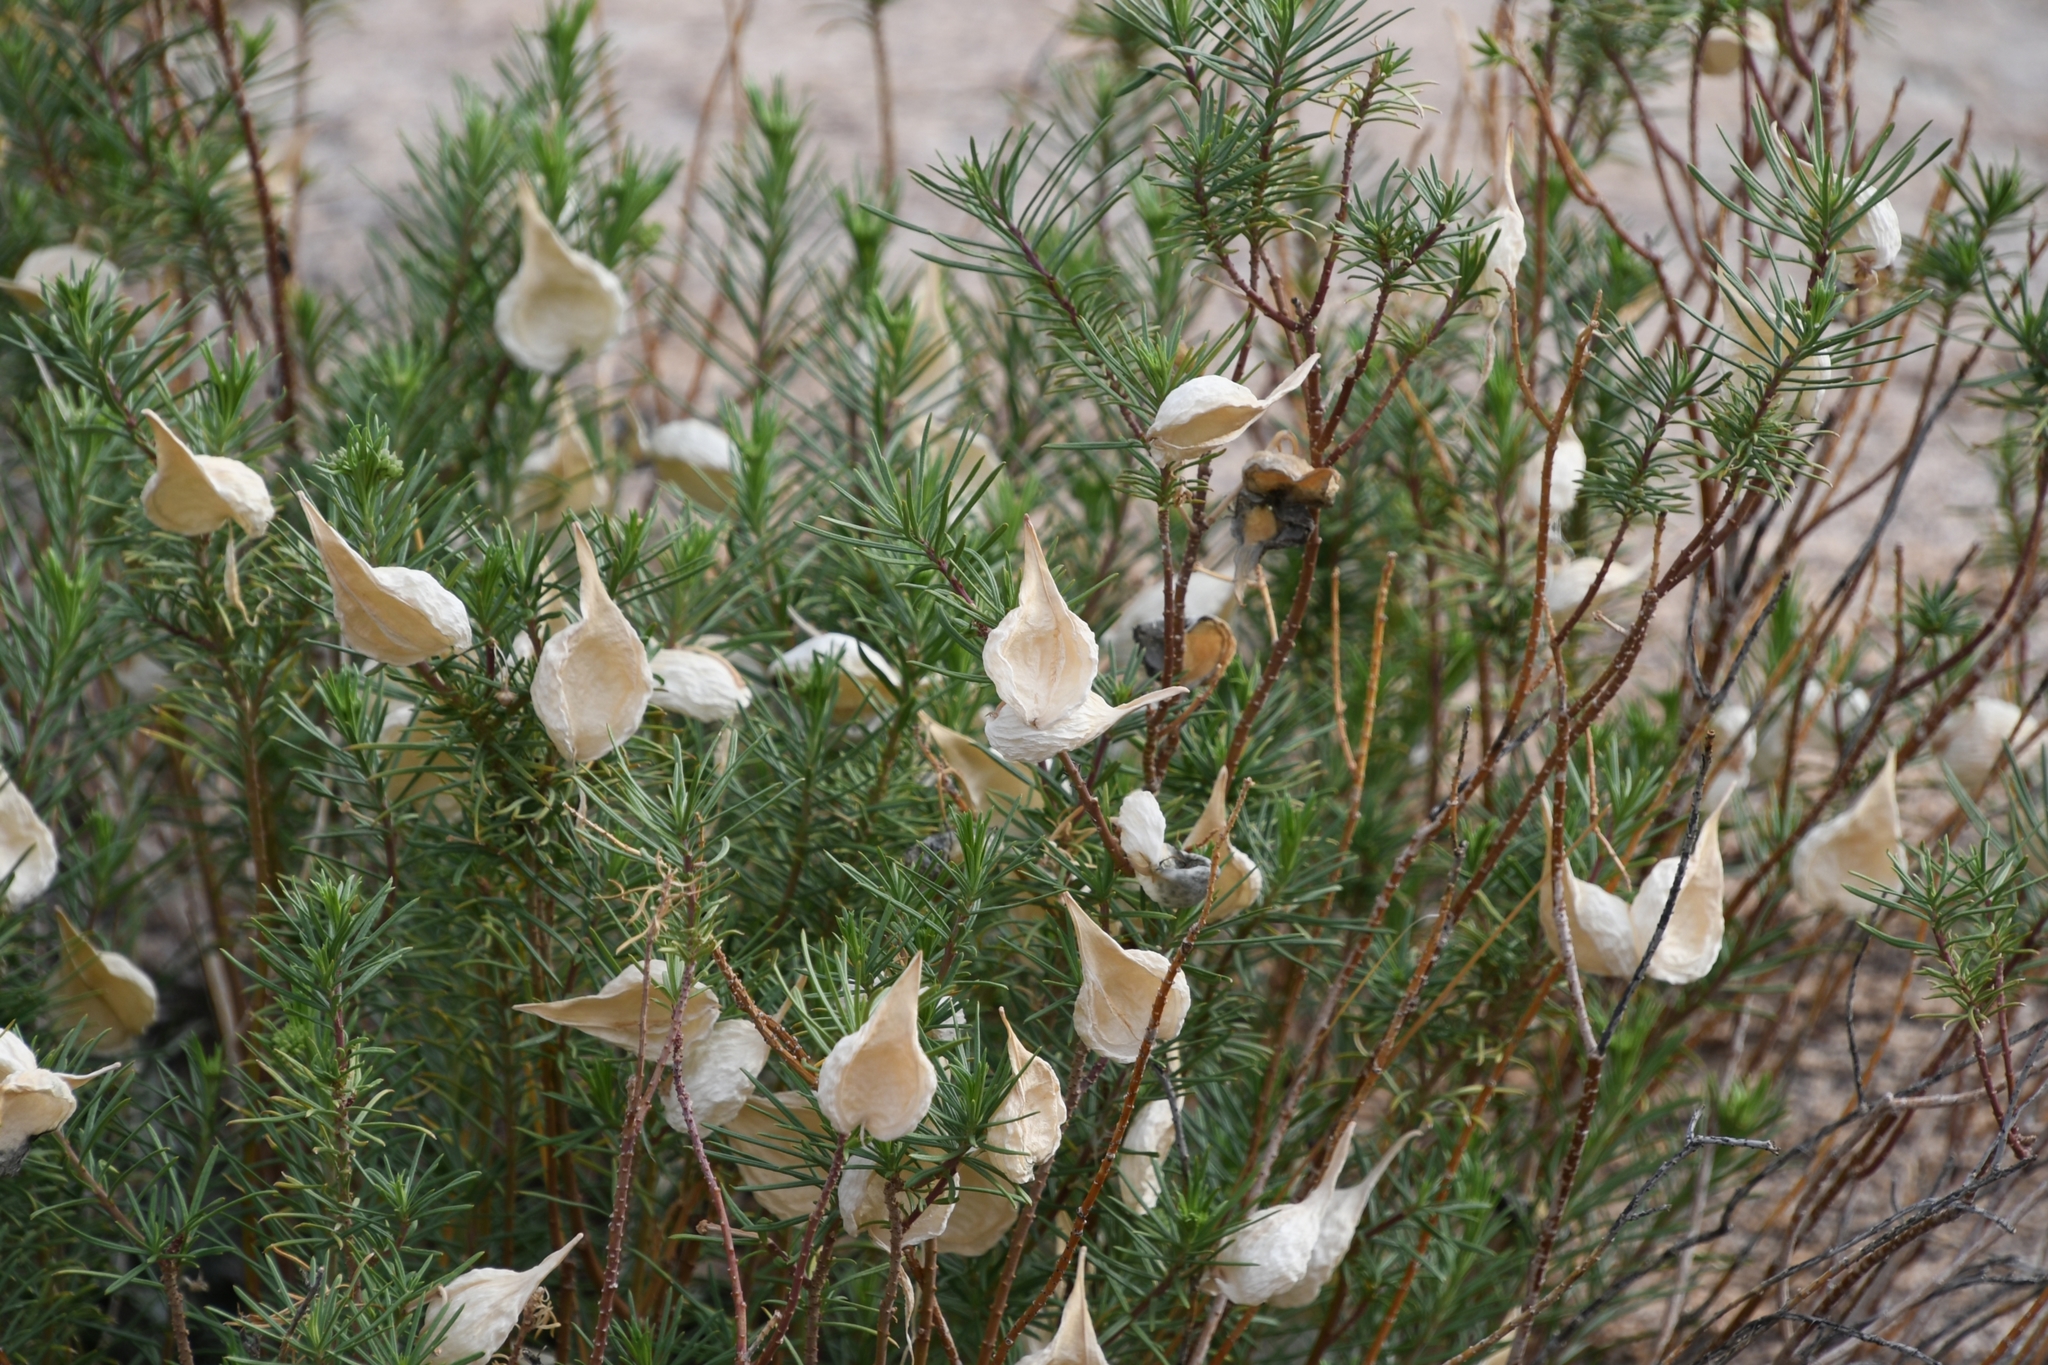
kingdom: Plantae
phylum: Tracheophyta
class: Magnoliopsida
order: Gentianales
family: Apocynaceae
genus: Asclepias
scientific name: Asclepias linaria
